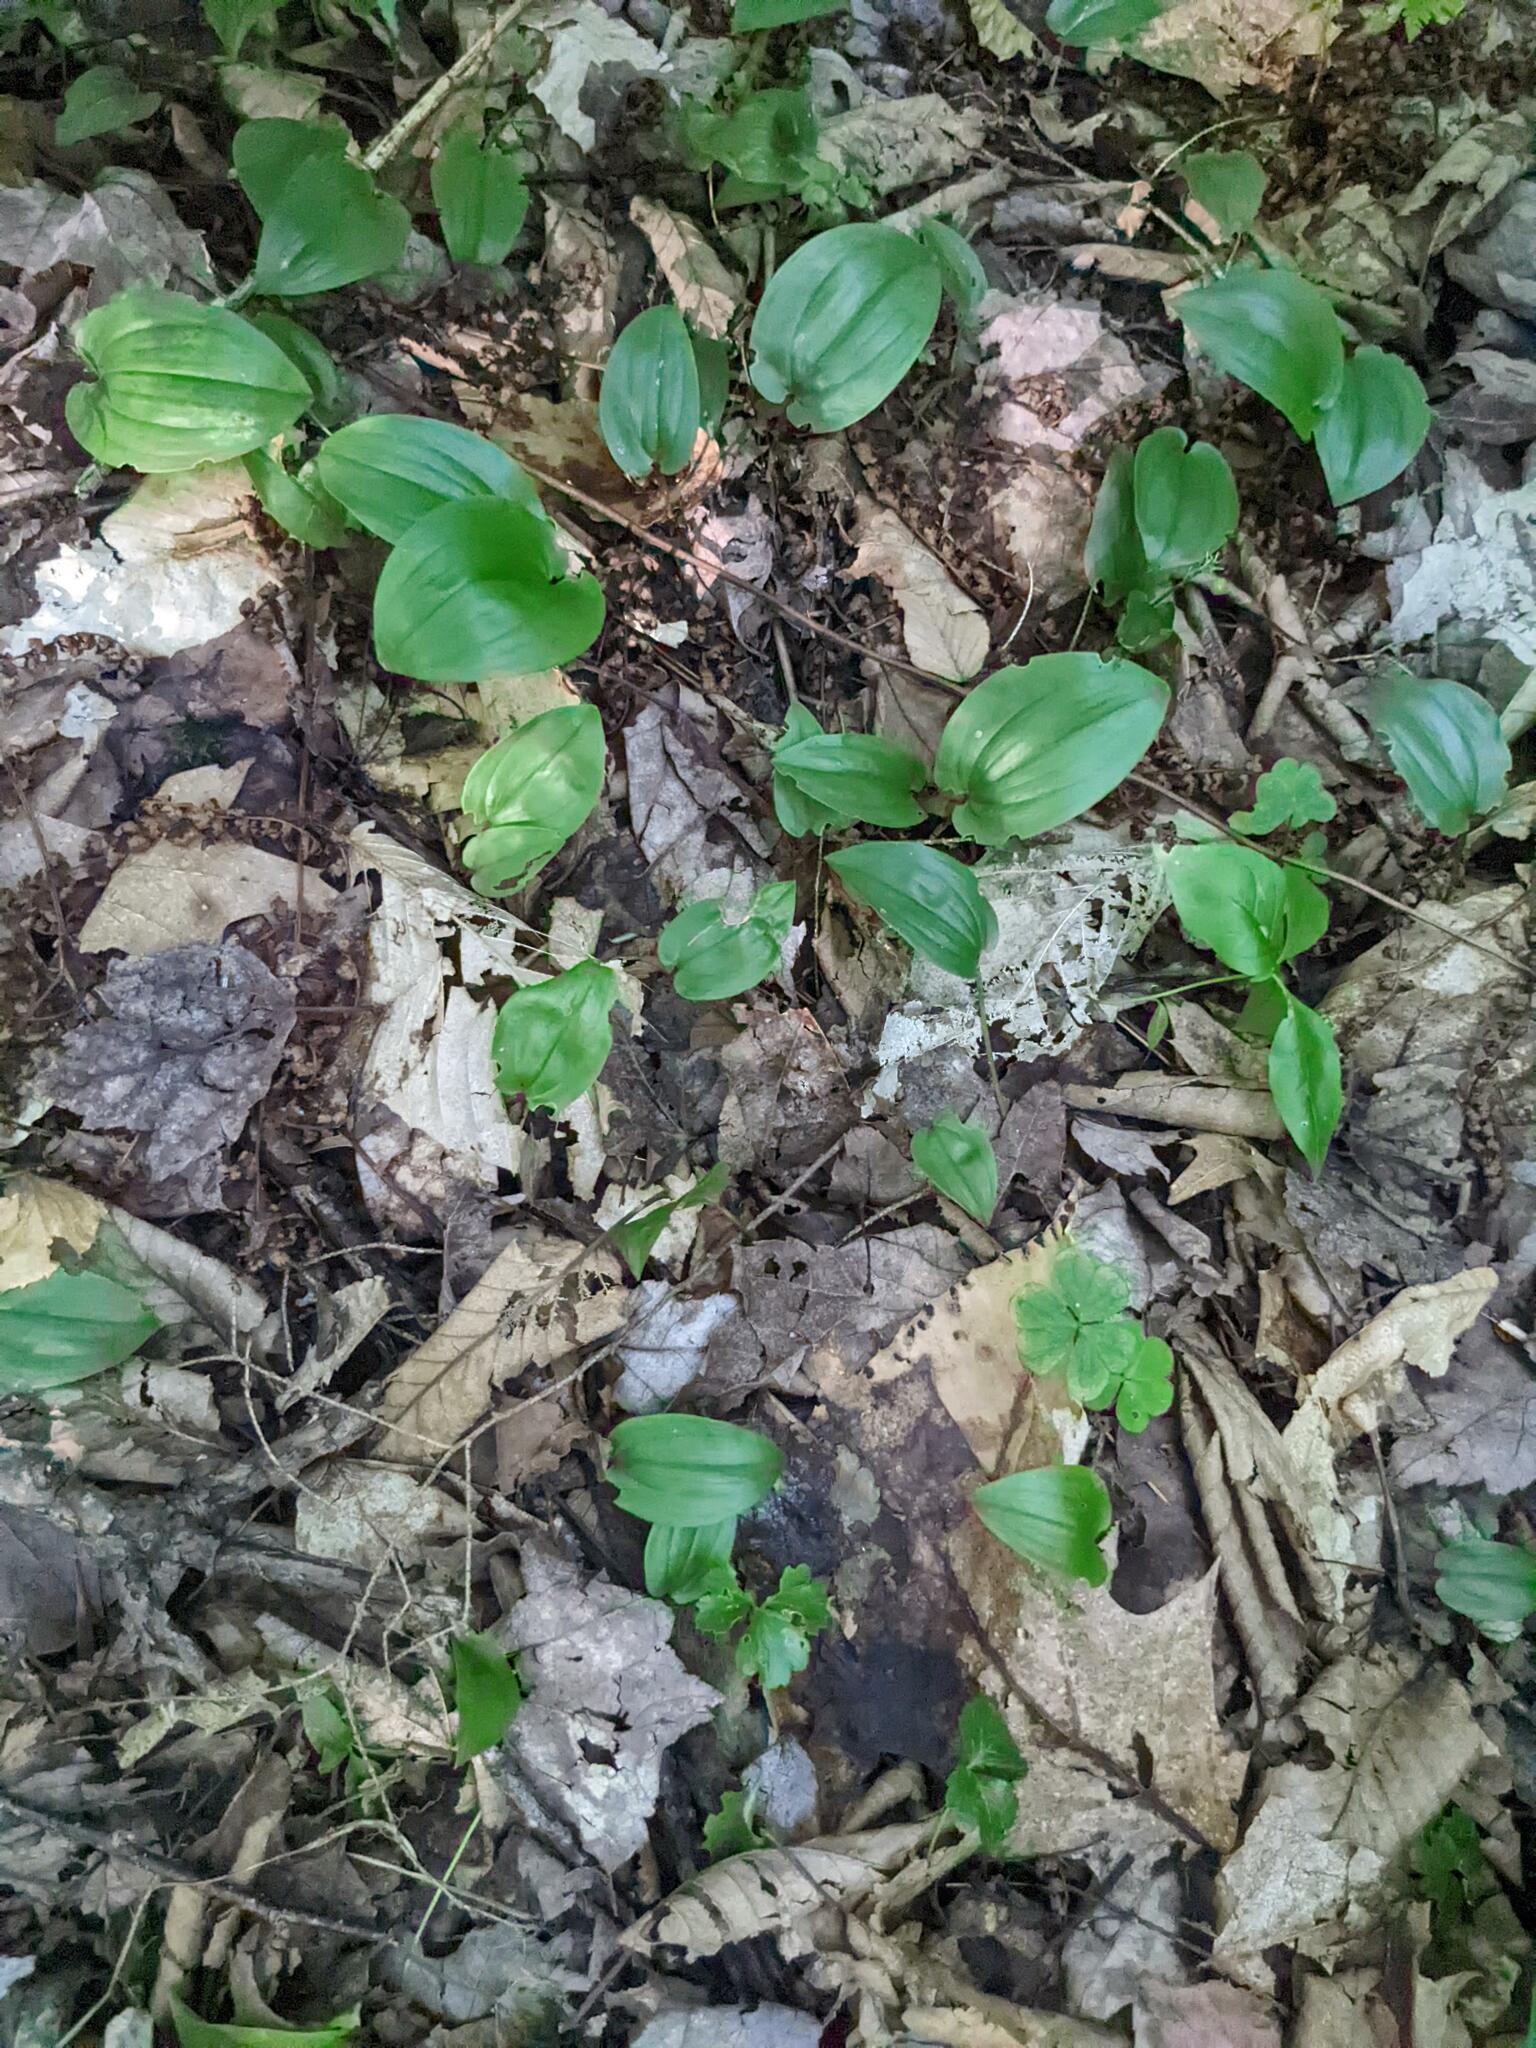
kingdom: Plantae
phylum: Tracheophyta
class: Liliopsida
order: Asparagales
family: Asparagaceae
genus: Maianthemum
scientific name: Maianthemum canadense
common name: False lily-of-the-valley
